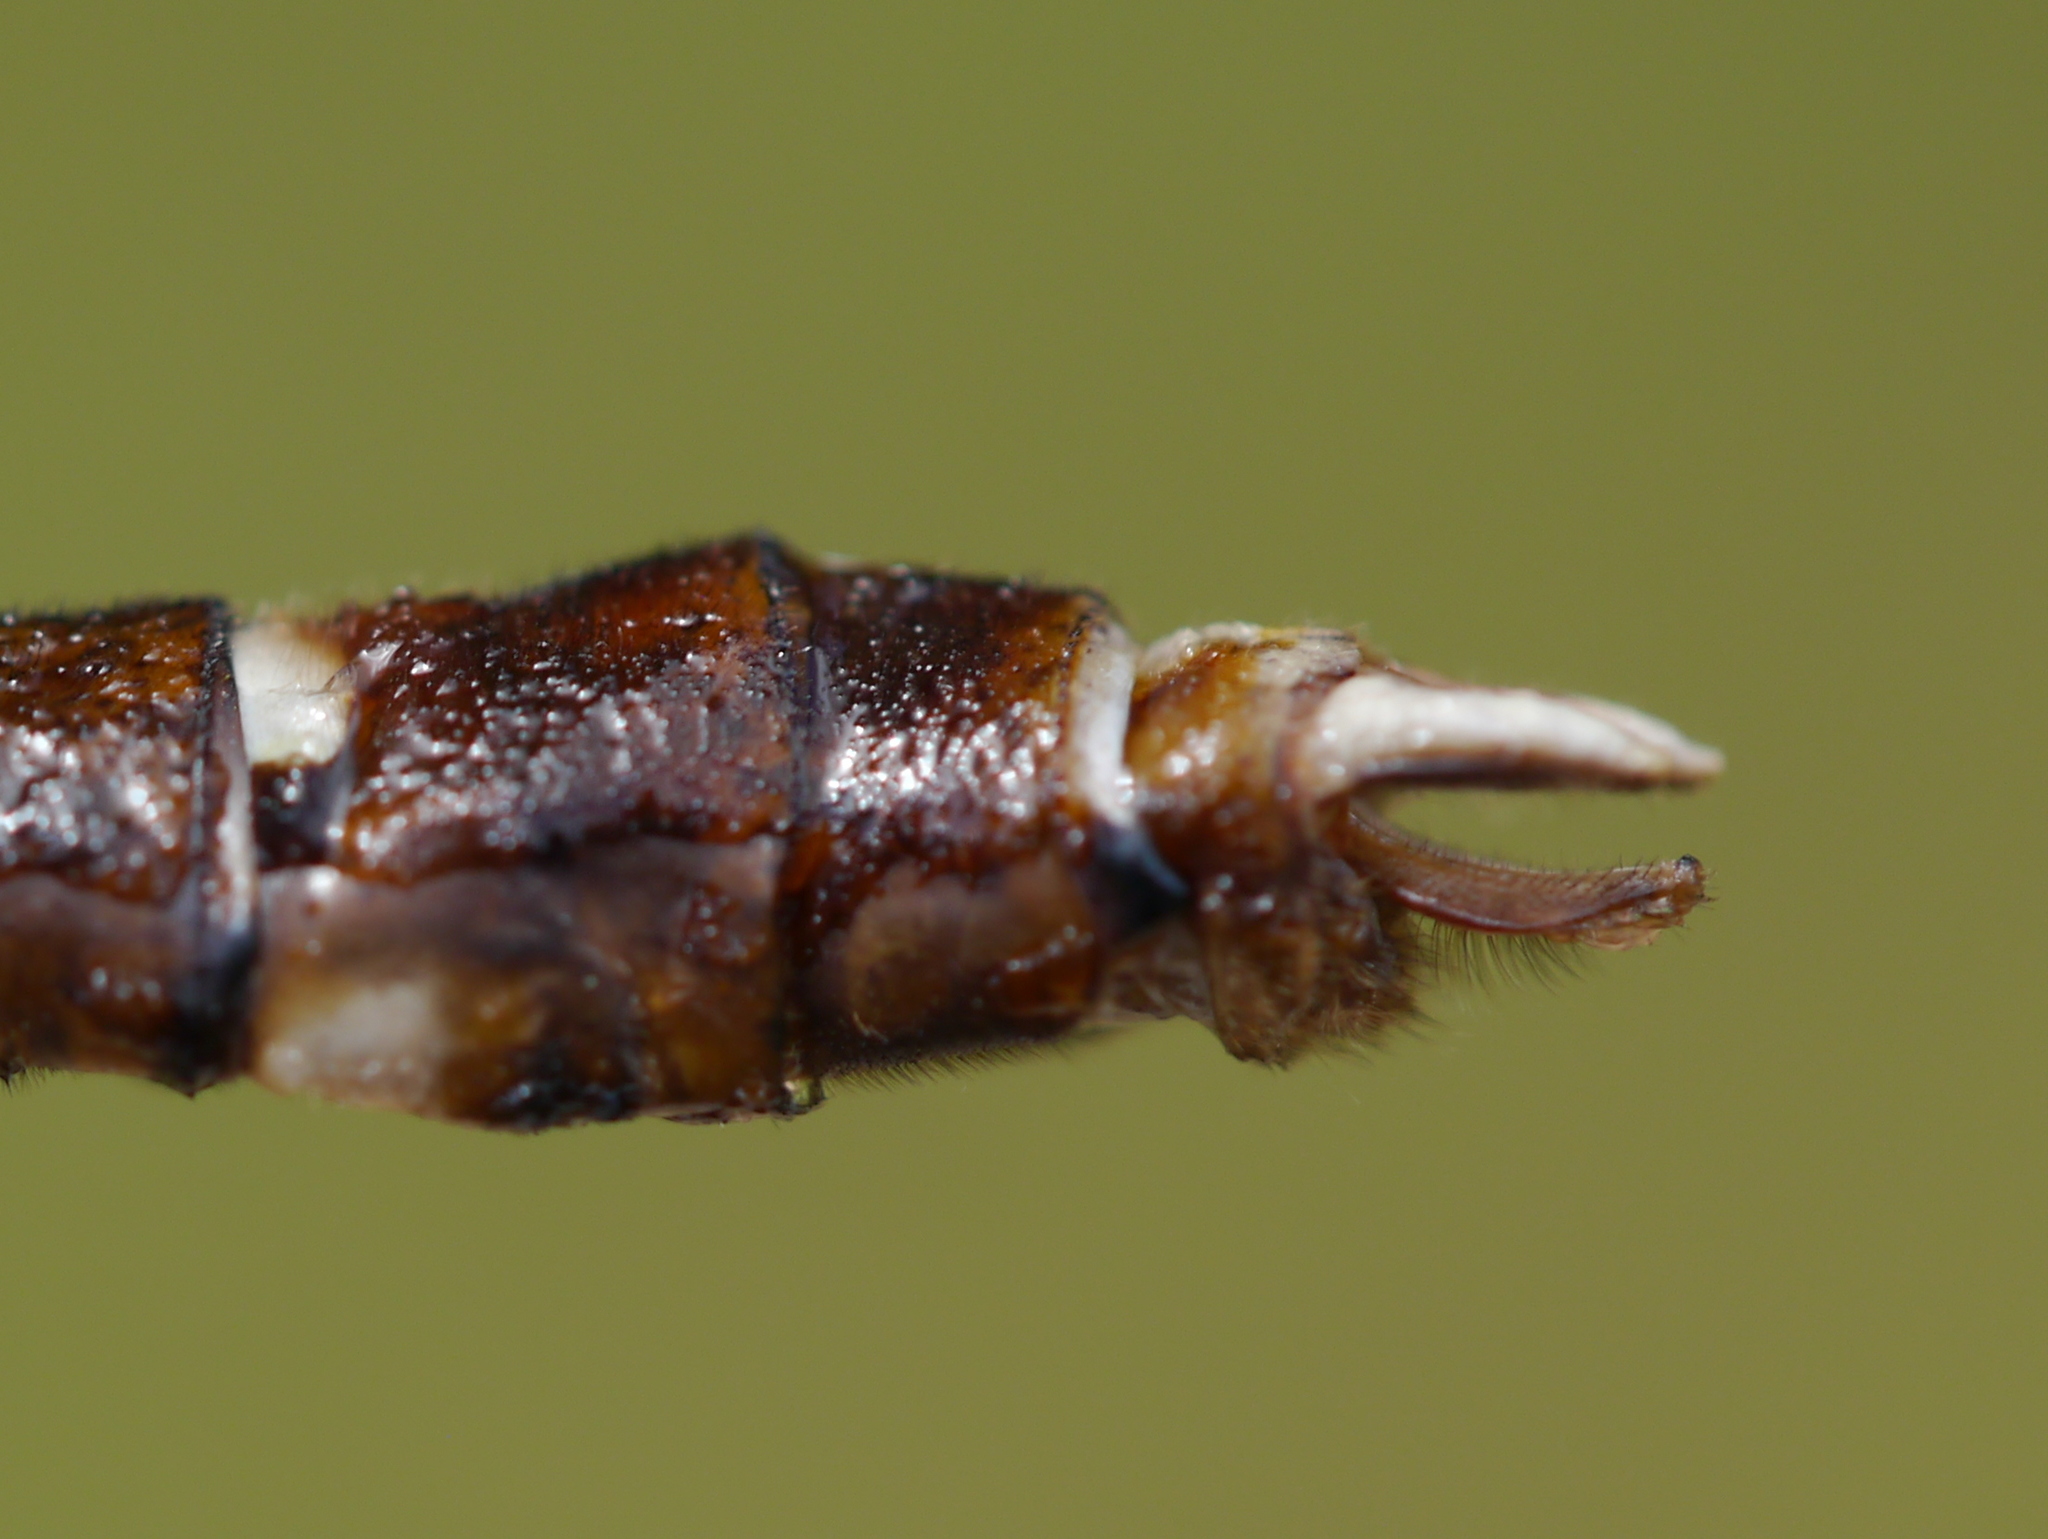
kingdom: Animalia
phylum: Arthropoda
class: Insecta
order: Odonata
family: Macromiidae
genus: Didymops
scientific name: Didymops transversa
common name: Stream cruiser
